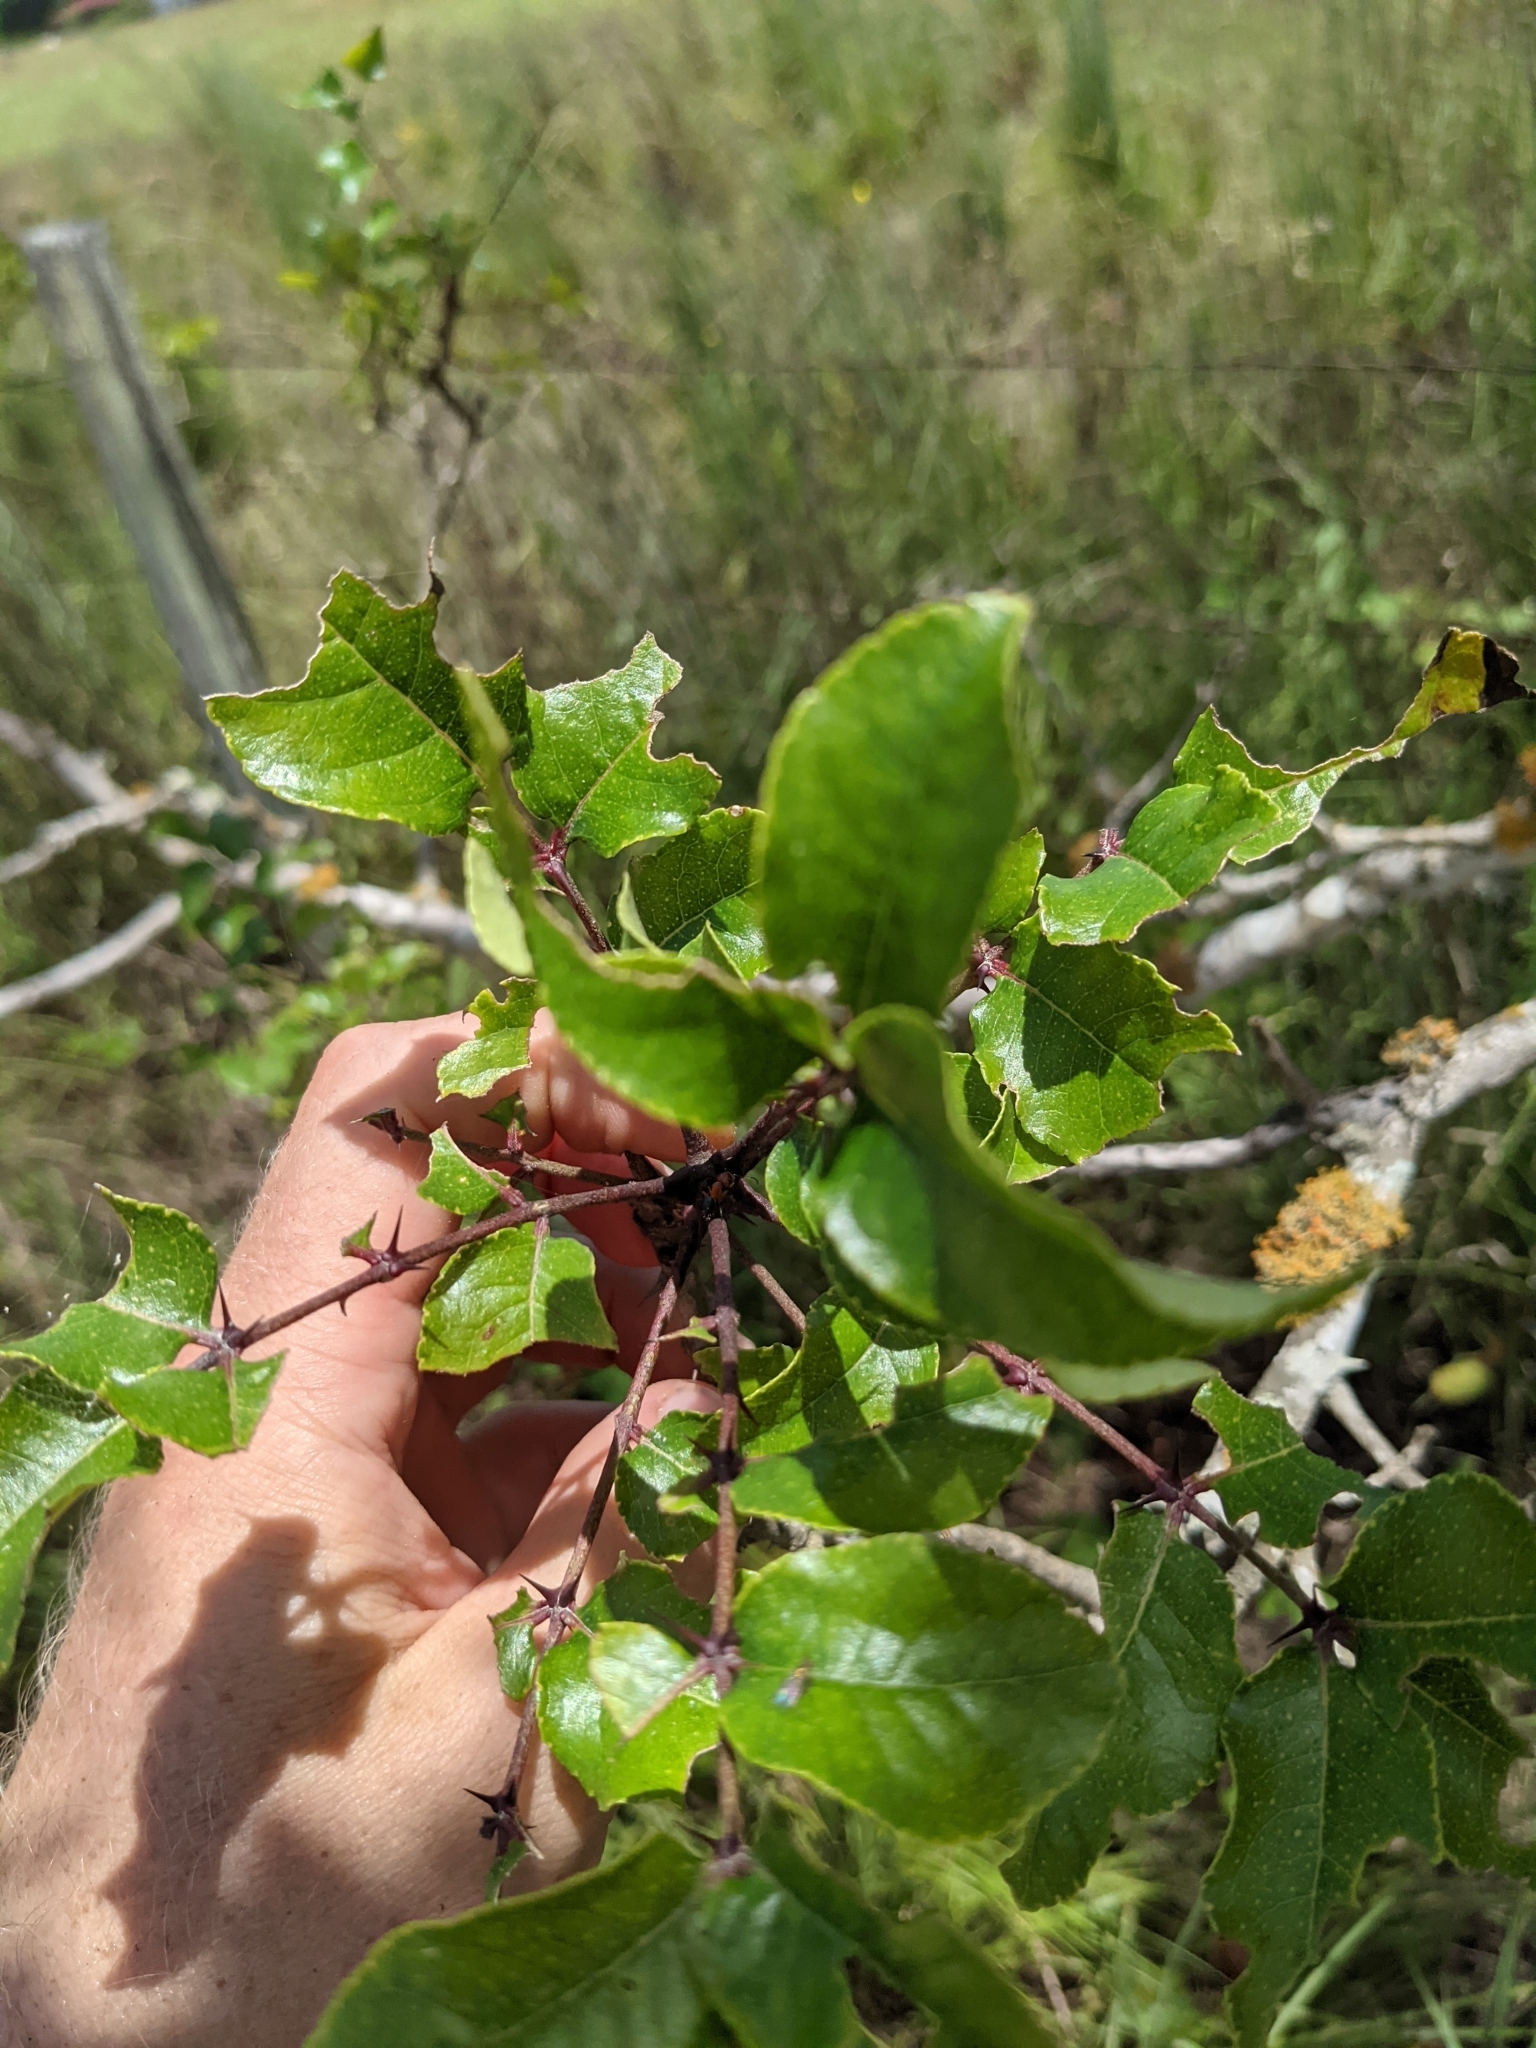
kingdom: Plantae
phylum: Tracheophyta
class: Magnoliopsida
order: Sapindales
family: Rutaceae
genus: Zanthoxylum
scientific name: Zanthoxylum clava-herculis
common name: Hercules'-club
